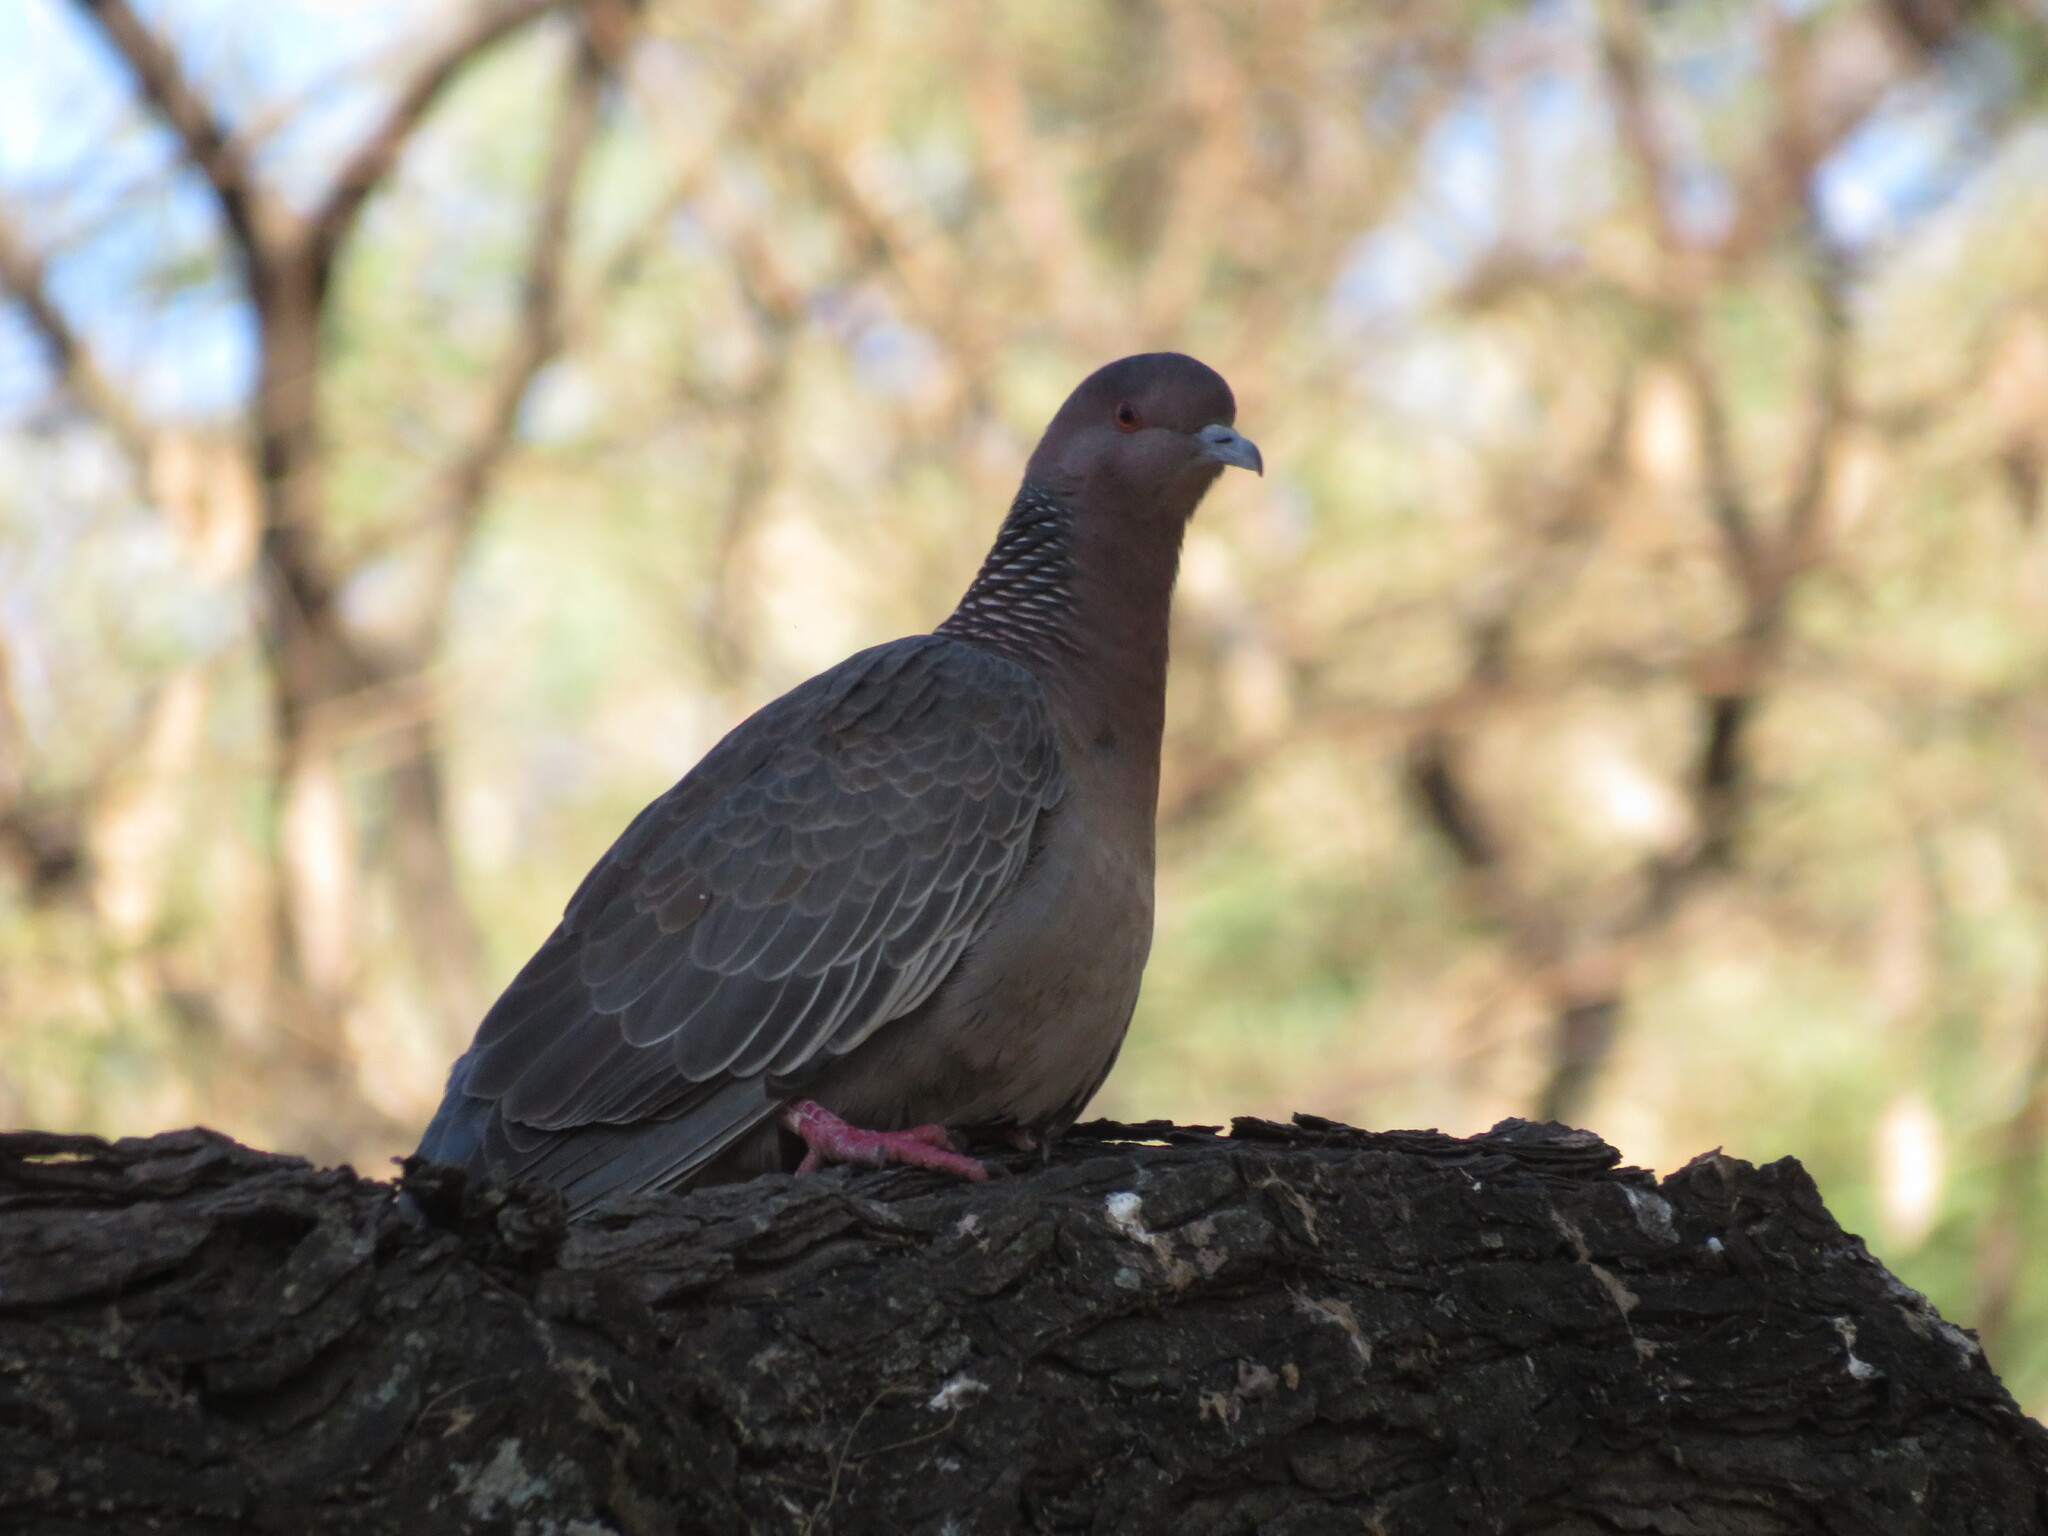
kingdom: Animalia
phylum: Chordata
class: Aves
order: Columbiformes
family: Columbidae
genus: Patagioenas
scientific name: Patagioenas picazuro
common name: Picazuro pigeon
